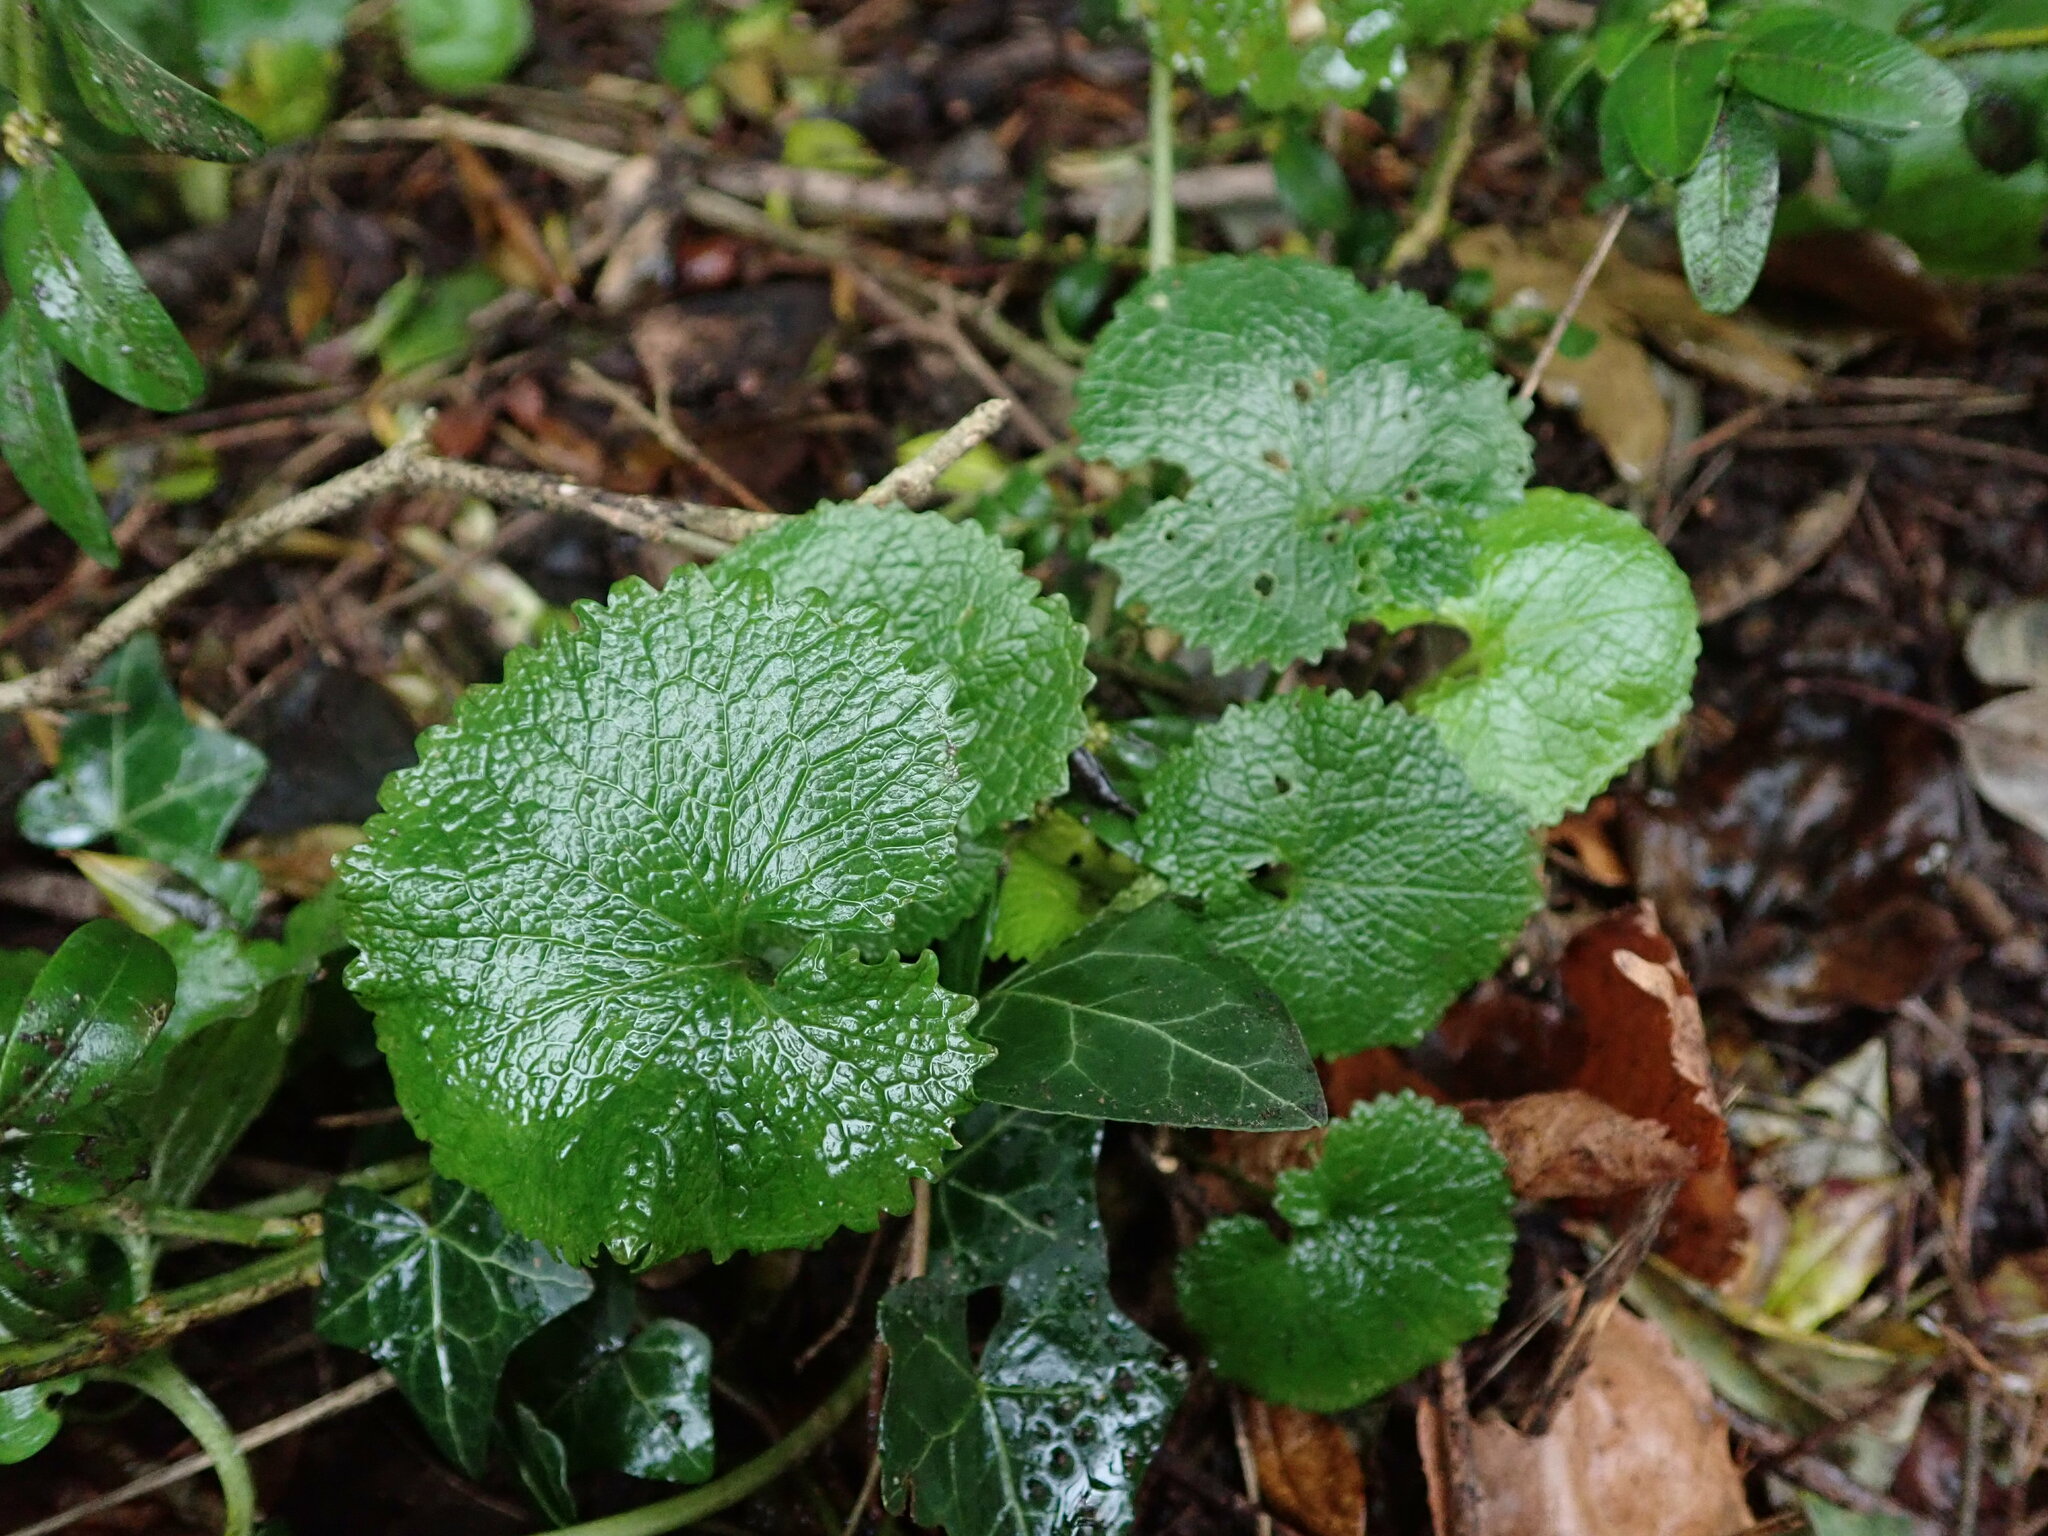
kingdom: Plantae
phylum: Tracheophyta
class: Magnoliopsida
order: Brassicales
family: Brassicaceae
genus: Alliaria
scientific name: Alliaria petiolata
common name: Garlic mustard
